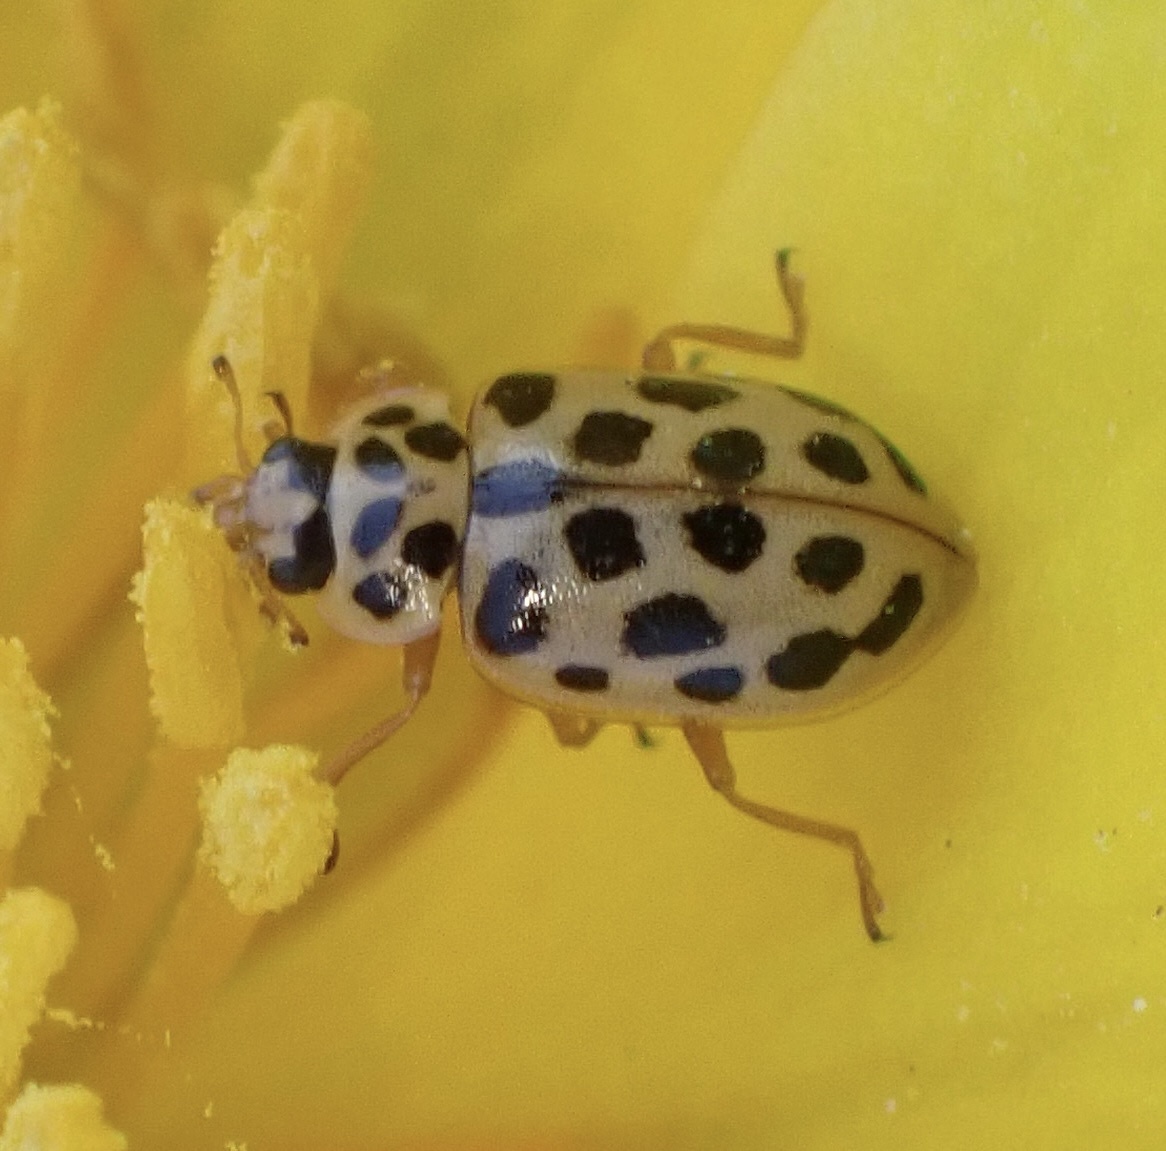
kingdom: Animalia
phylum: Arthropoda
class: Insecta
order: Coleoptera
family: Coccinellidae
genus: Anisosticta
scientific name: Anisosticta novemdecimpunctata
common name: Water ladybird
